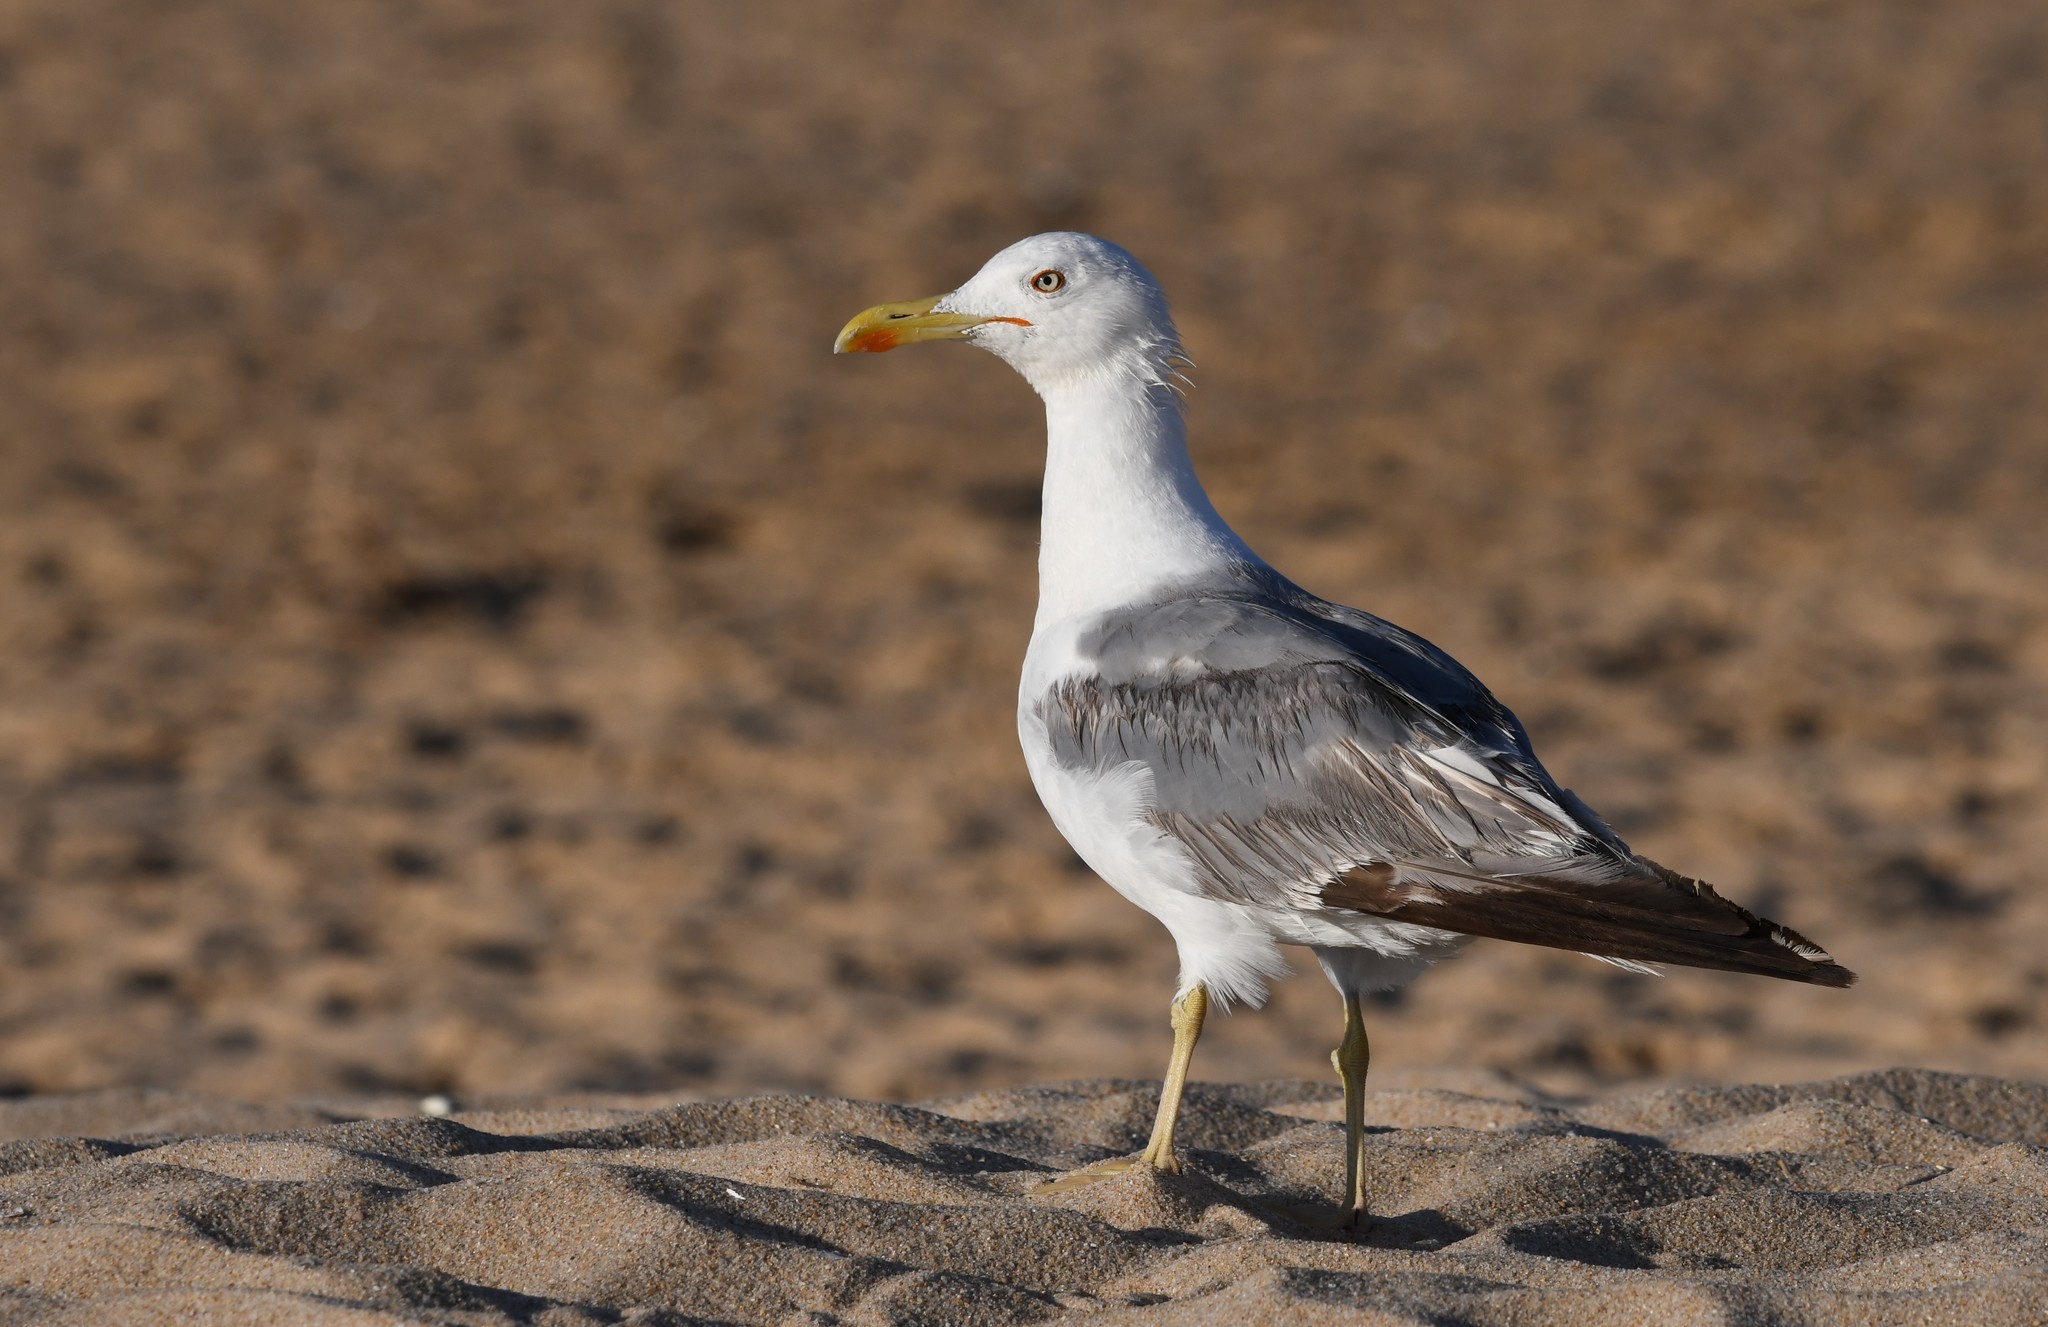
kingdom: Animalia
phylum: Chordata
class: Aves
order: Charadriiformes
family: Laridae
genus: Larus
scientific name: Larus michahellis
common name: Yellow-legged gull
